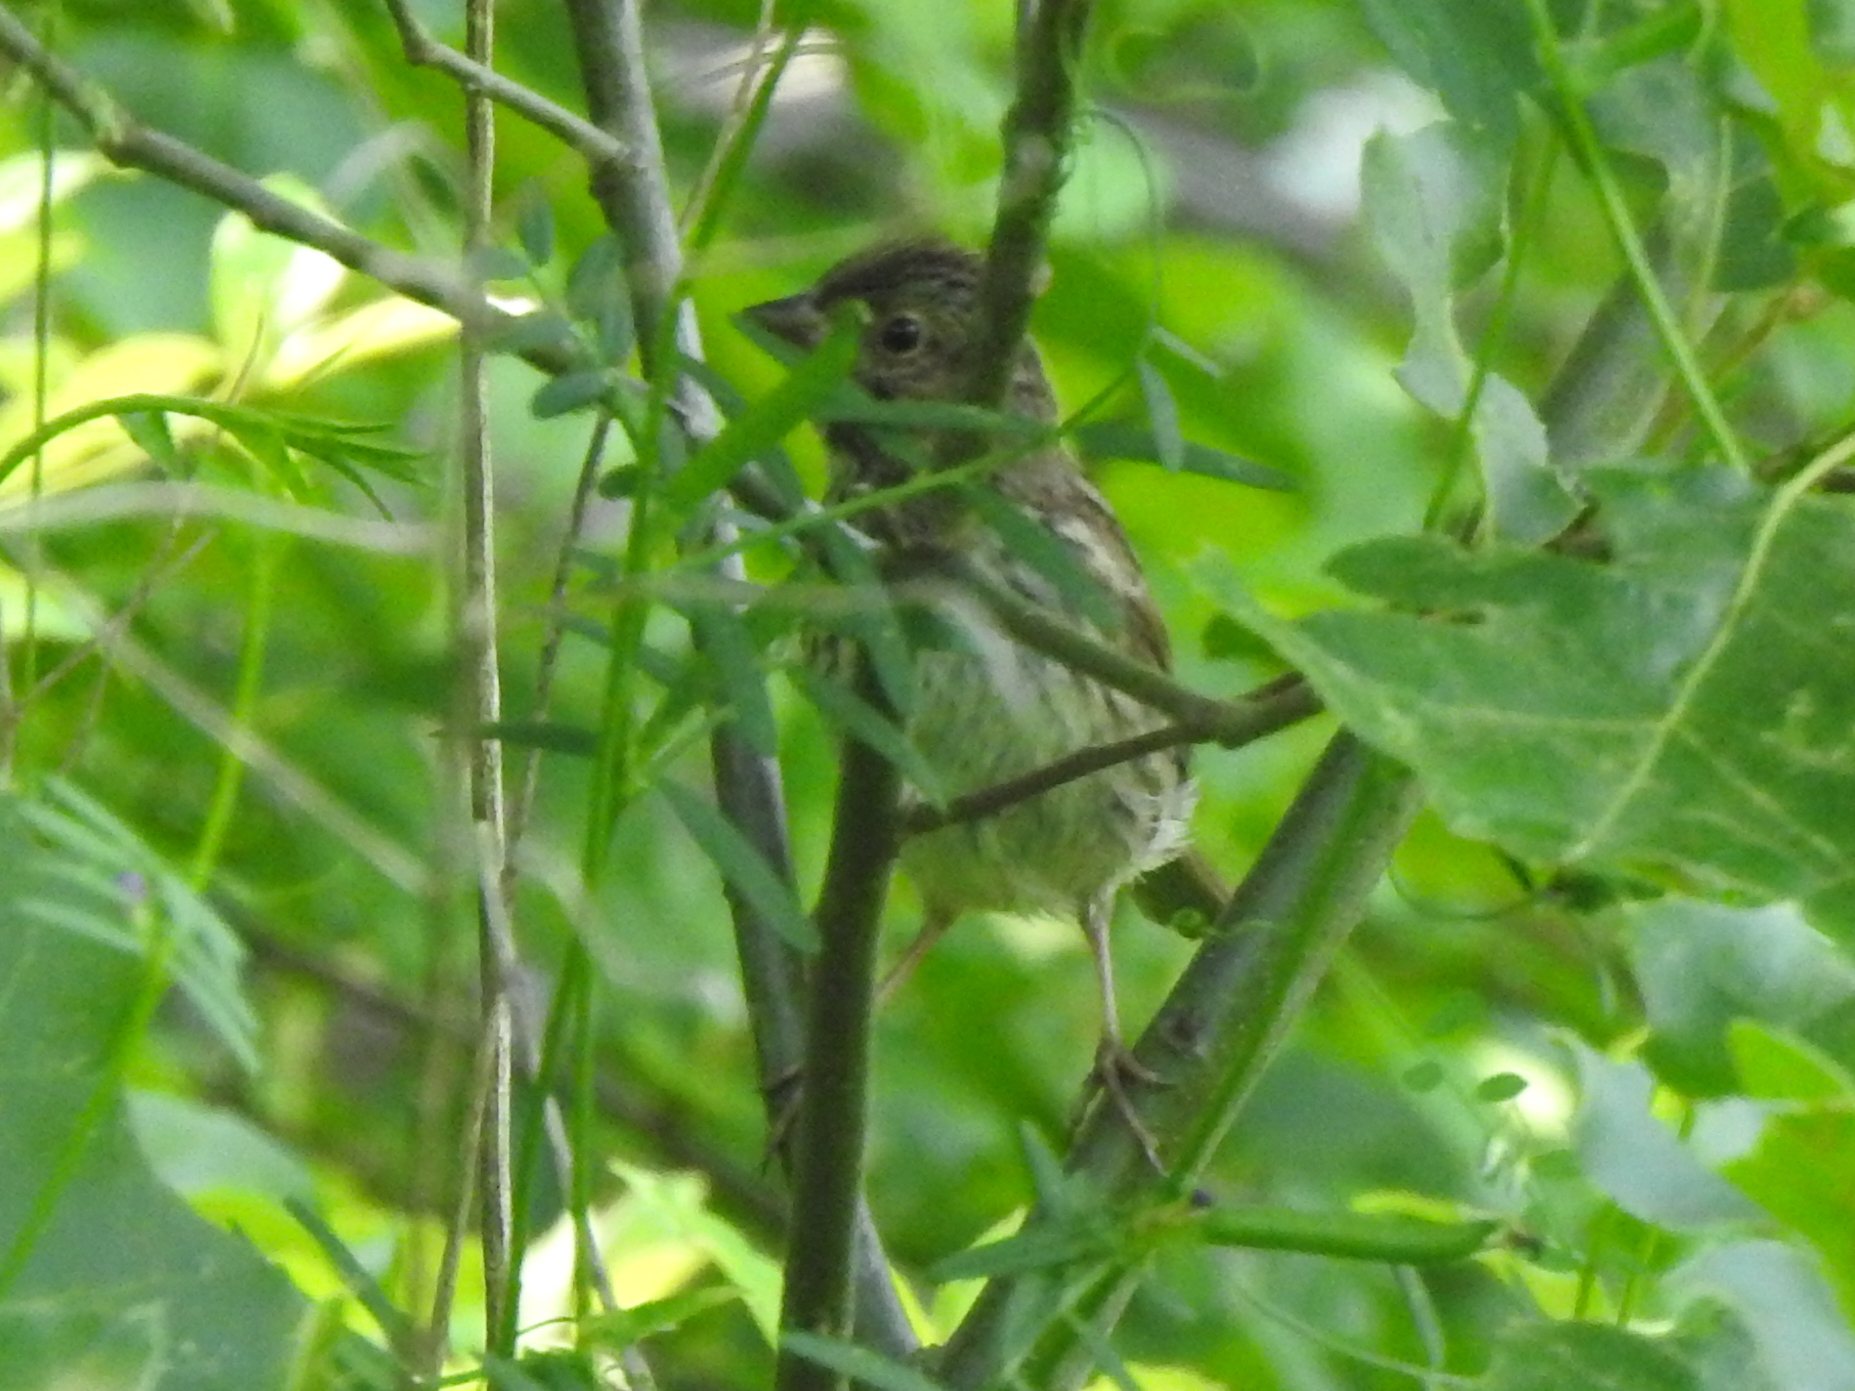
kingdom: Animalia
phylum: Chordata
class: Aves
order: Passeriformes
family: Passerellidae
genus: Melospiza
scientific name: Melospiza melodia
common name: Song sparrow
